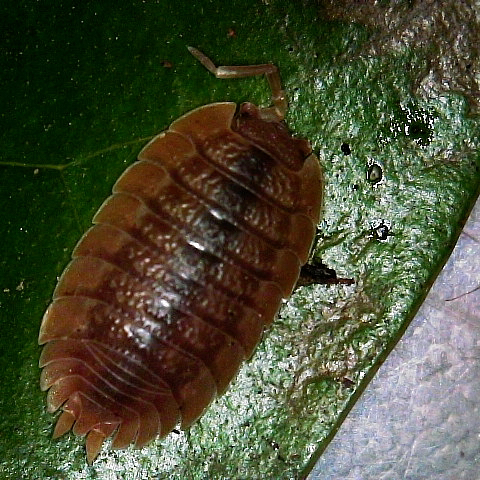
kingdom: Animalia
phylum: Arthropoda
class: Malacostraca
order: Isopoda
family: Porcellionidae
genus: Porcellio
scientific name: Porcellio dilatatus
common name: Isopod
